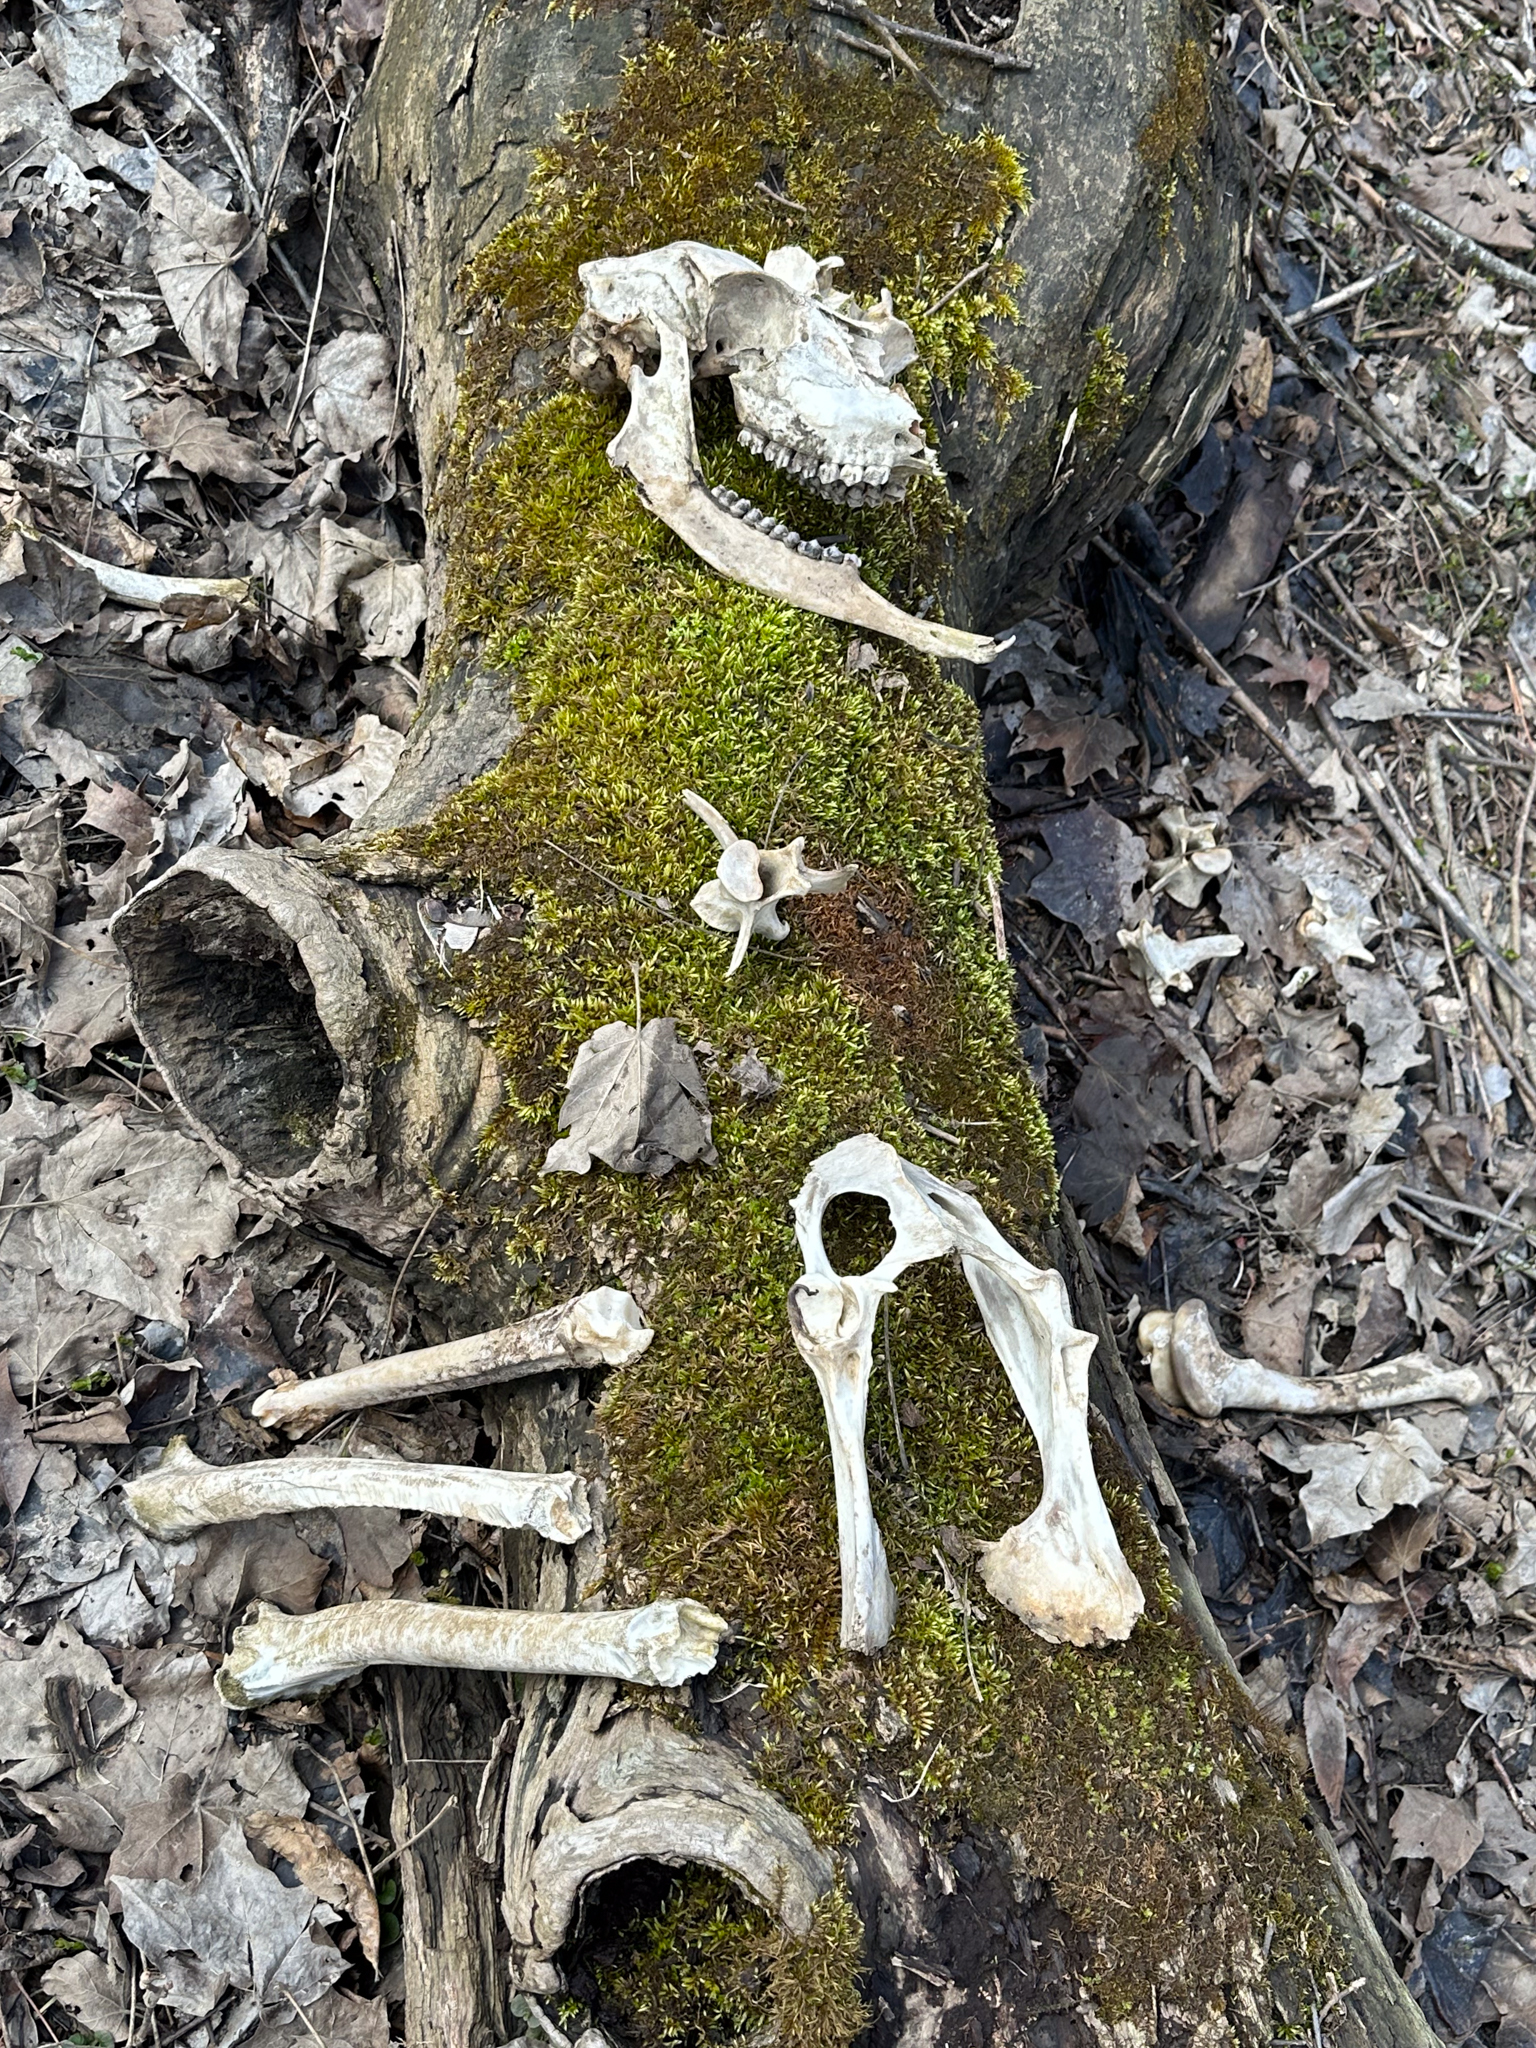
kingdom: Animalia
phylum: Chordata
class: Mammalia
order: Artiodactyla
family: Cervidae
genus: Odocoileus
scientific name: Odocoileus virginianus
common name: White-tailed deer
